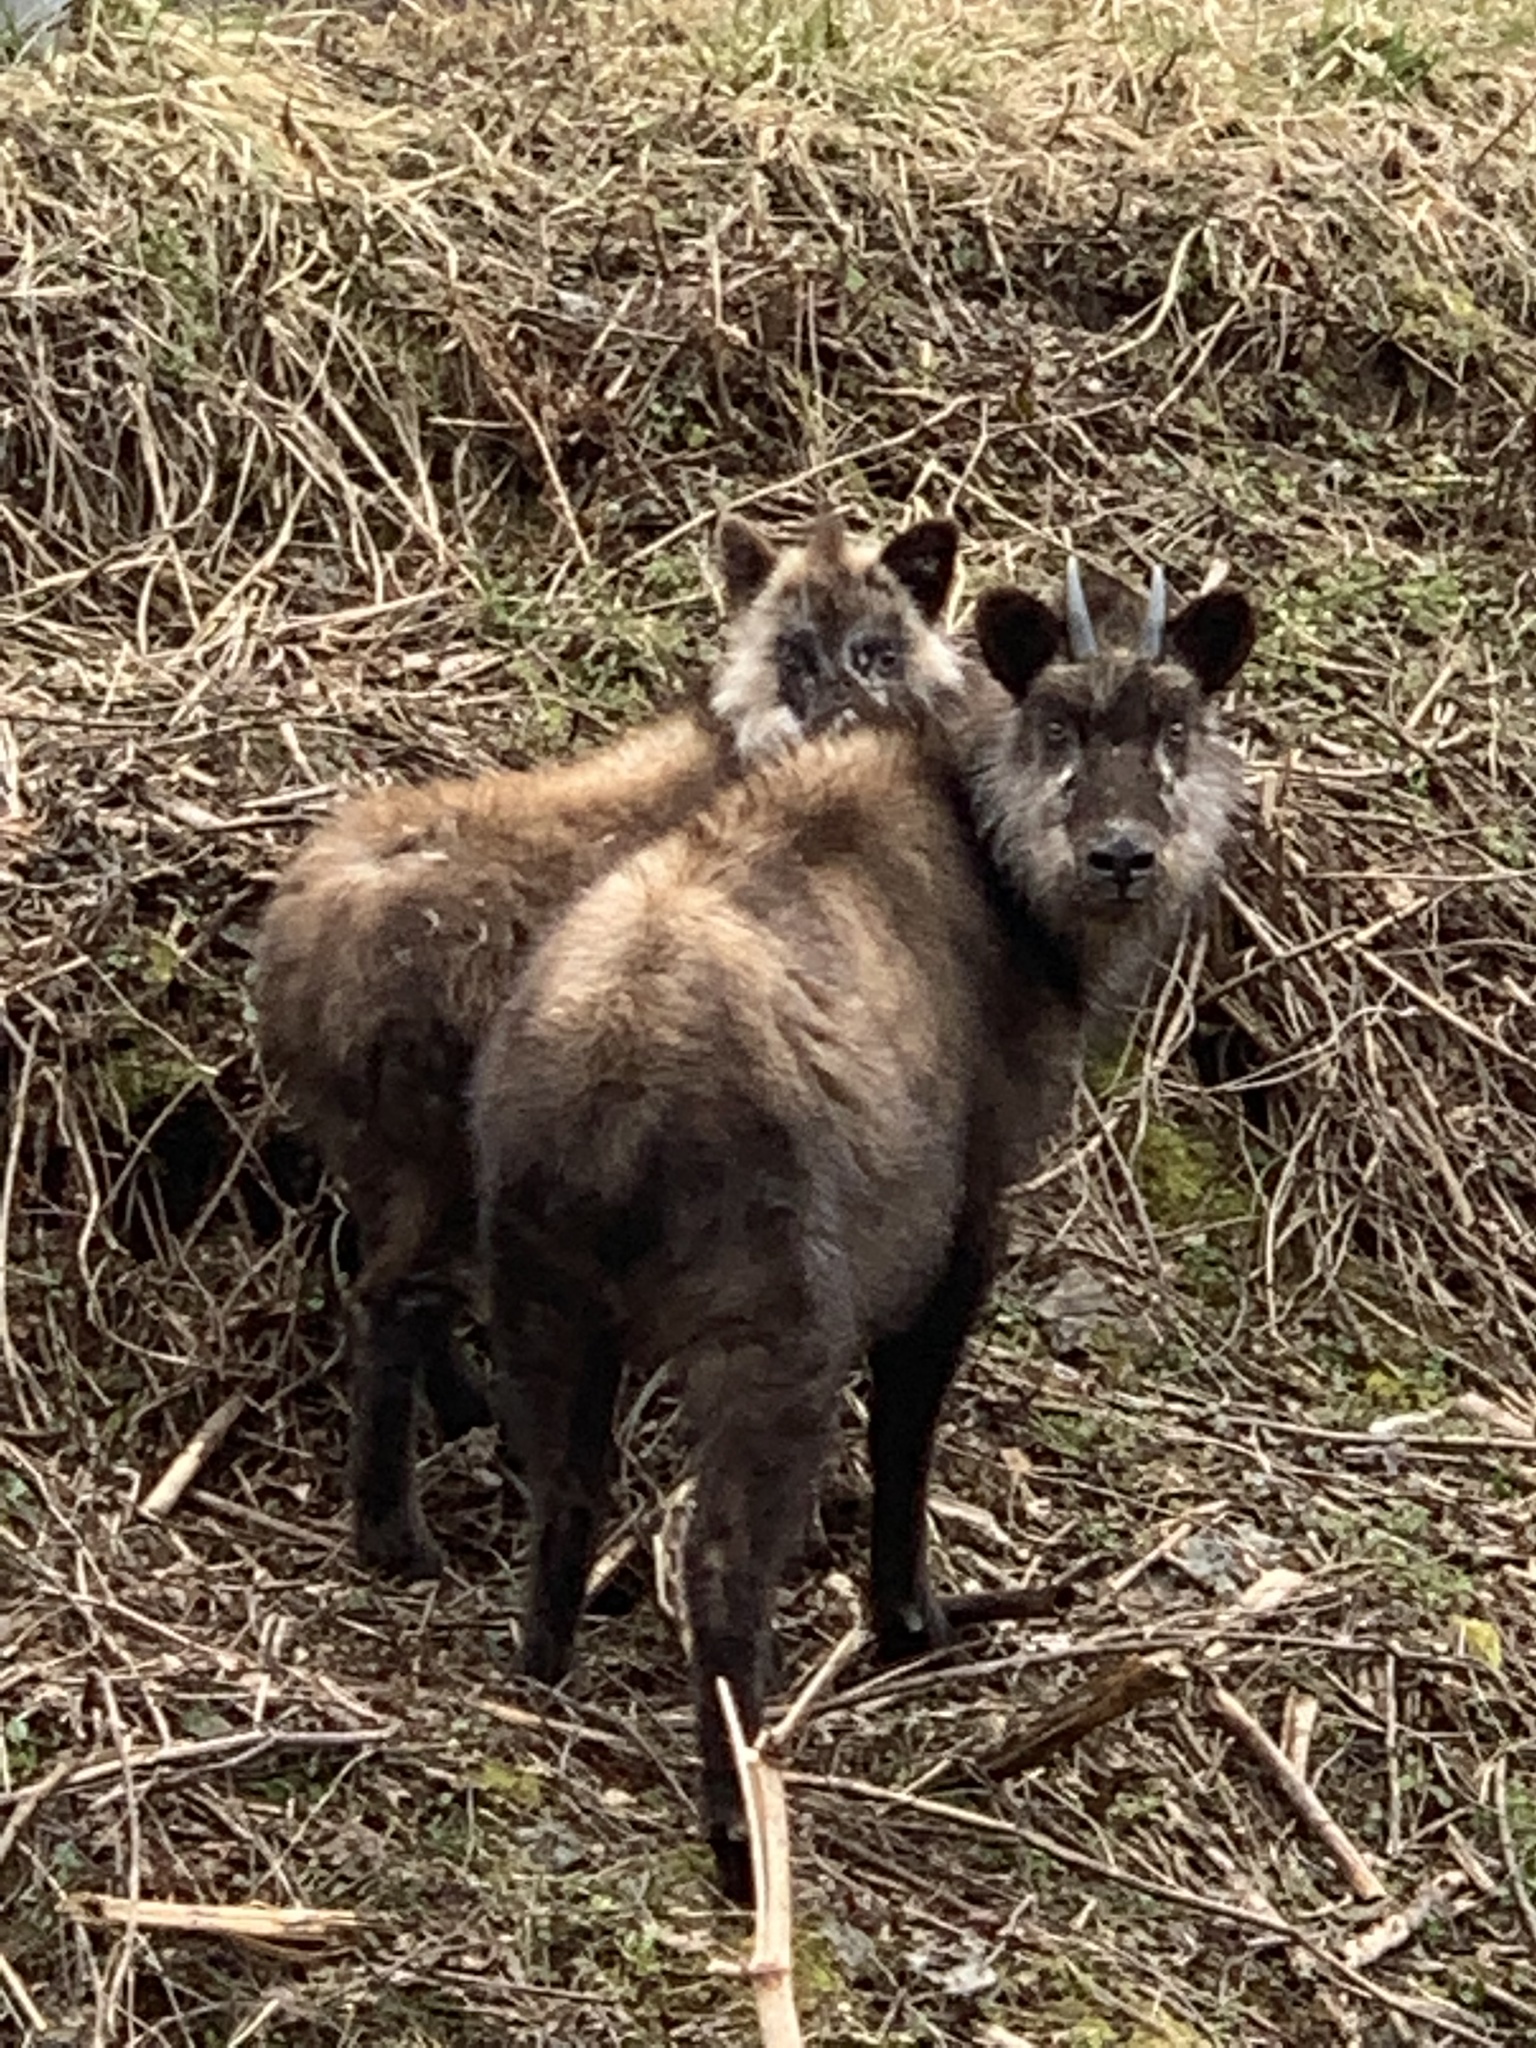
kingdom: Animalia
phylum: Chordata
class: Mammalia
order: Artiodactyla
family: Bovidae
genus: Capricornis
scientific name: Capricornis crispus
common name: Japanese serow
